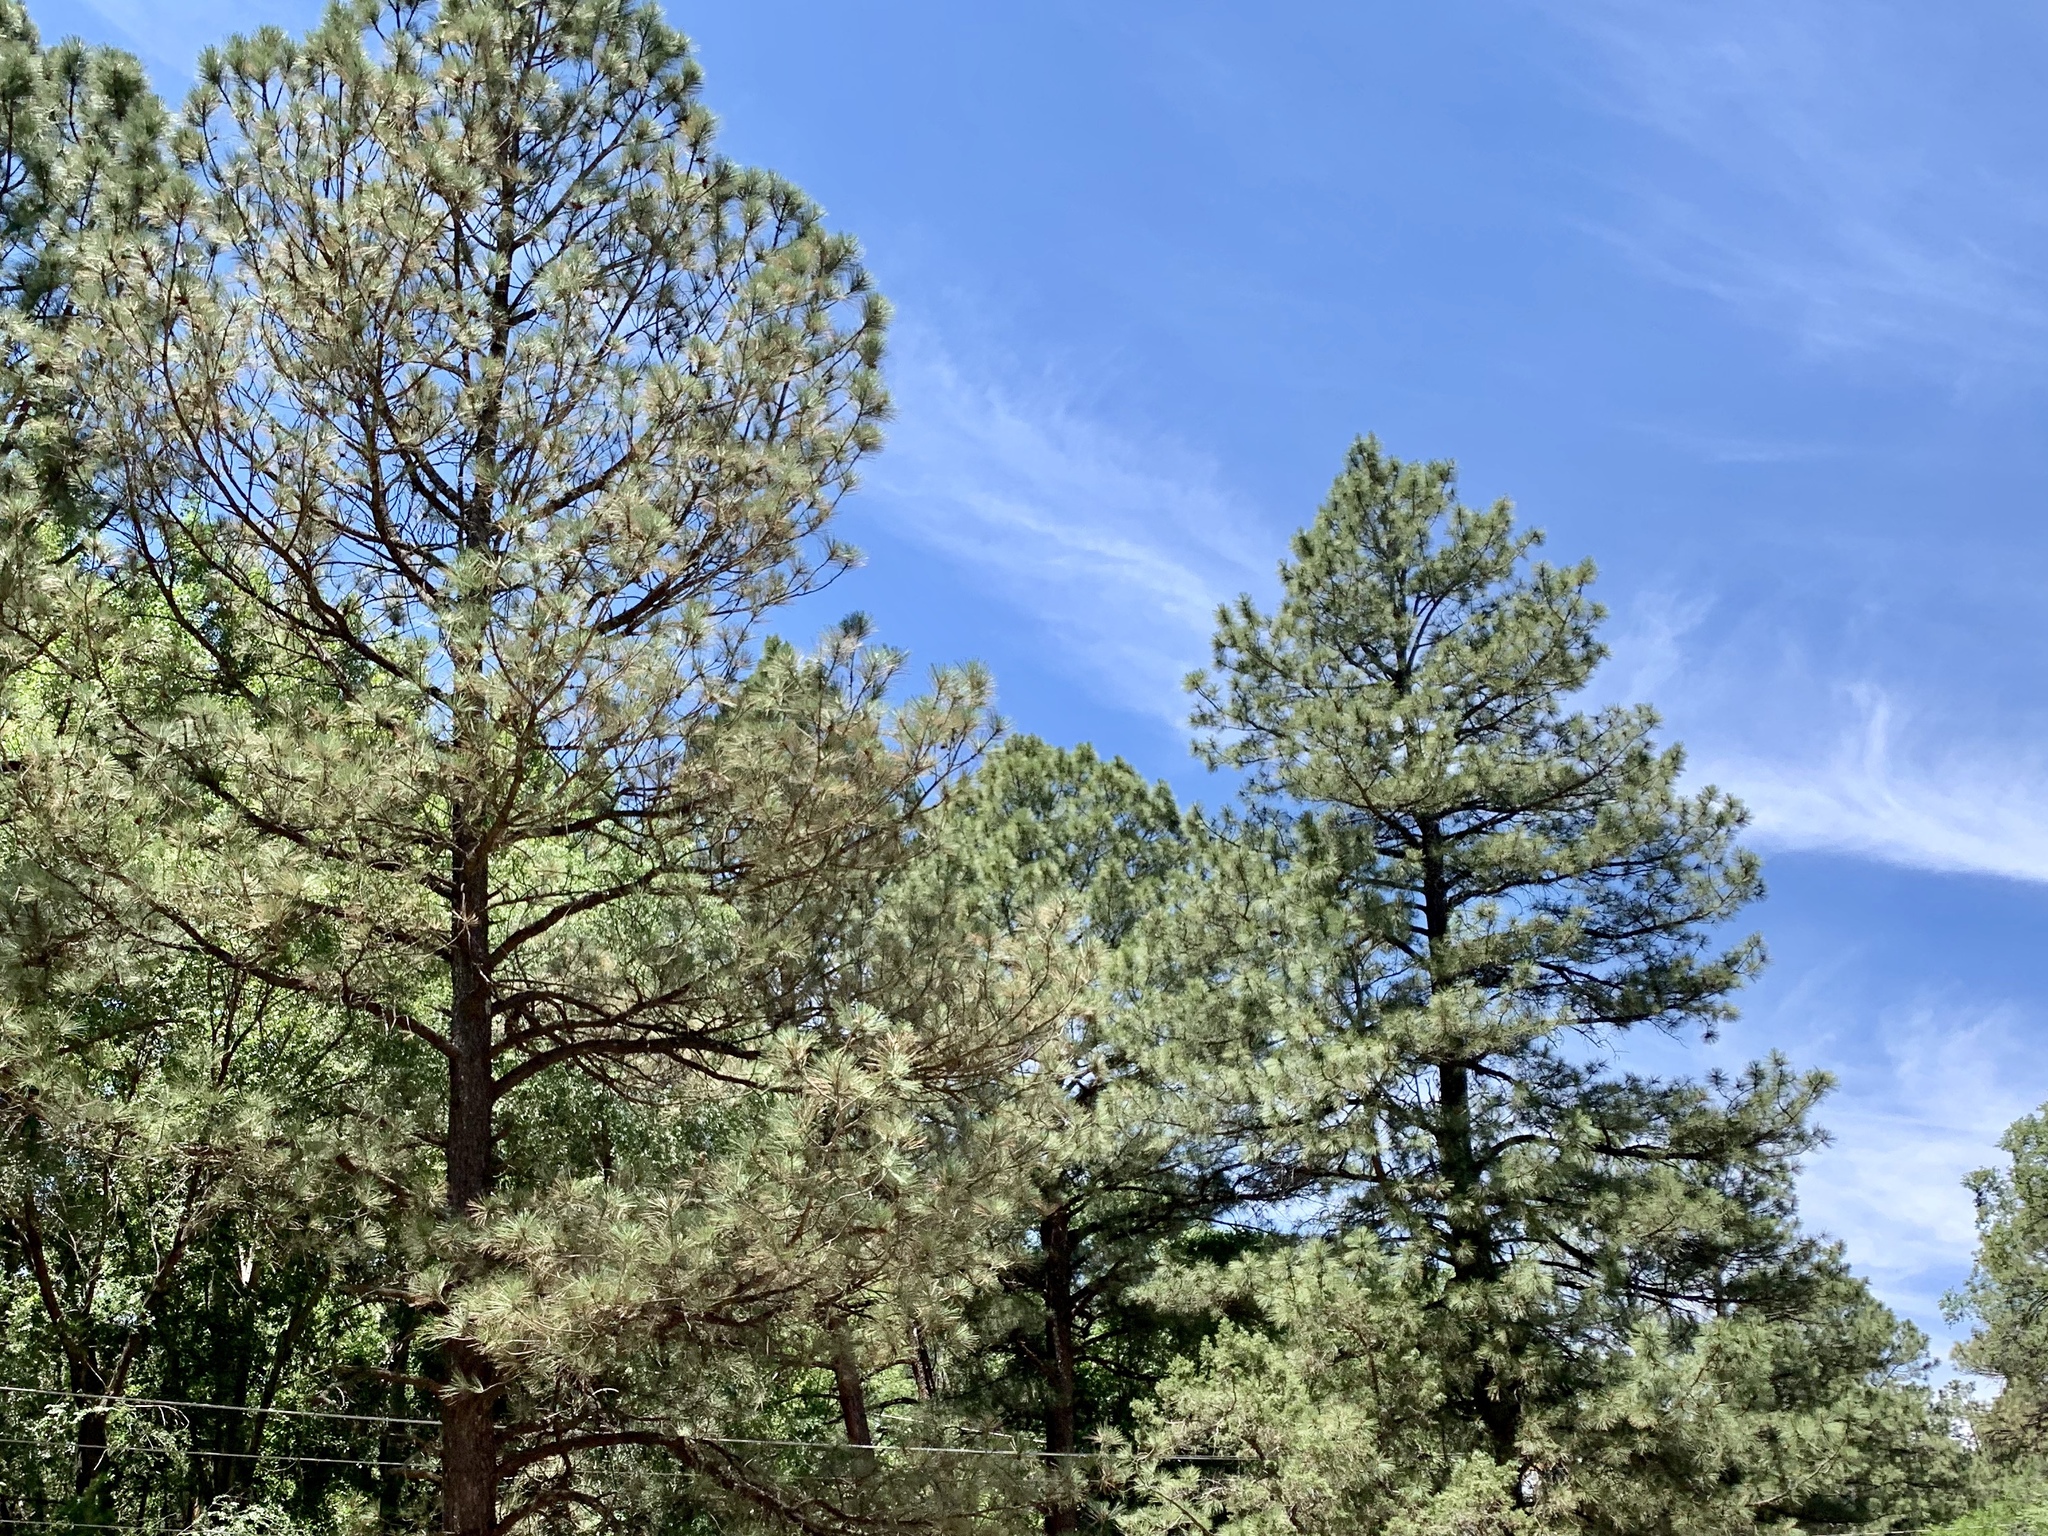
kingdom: Plantae
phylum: Tracheophyta
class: Pinopsida
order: Pinales
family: Pinaceae
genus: Pinus
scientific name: Pinus ponderosa
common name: Western yellow-pine
